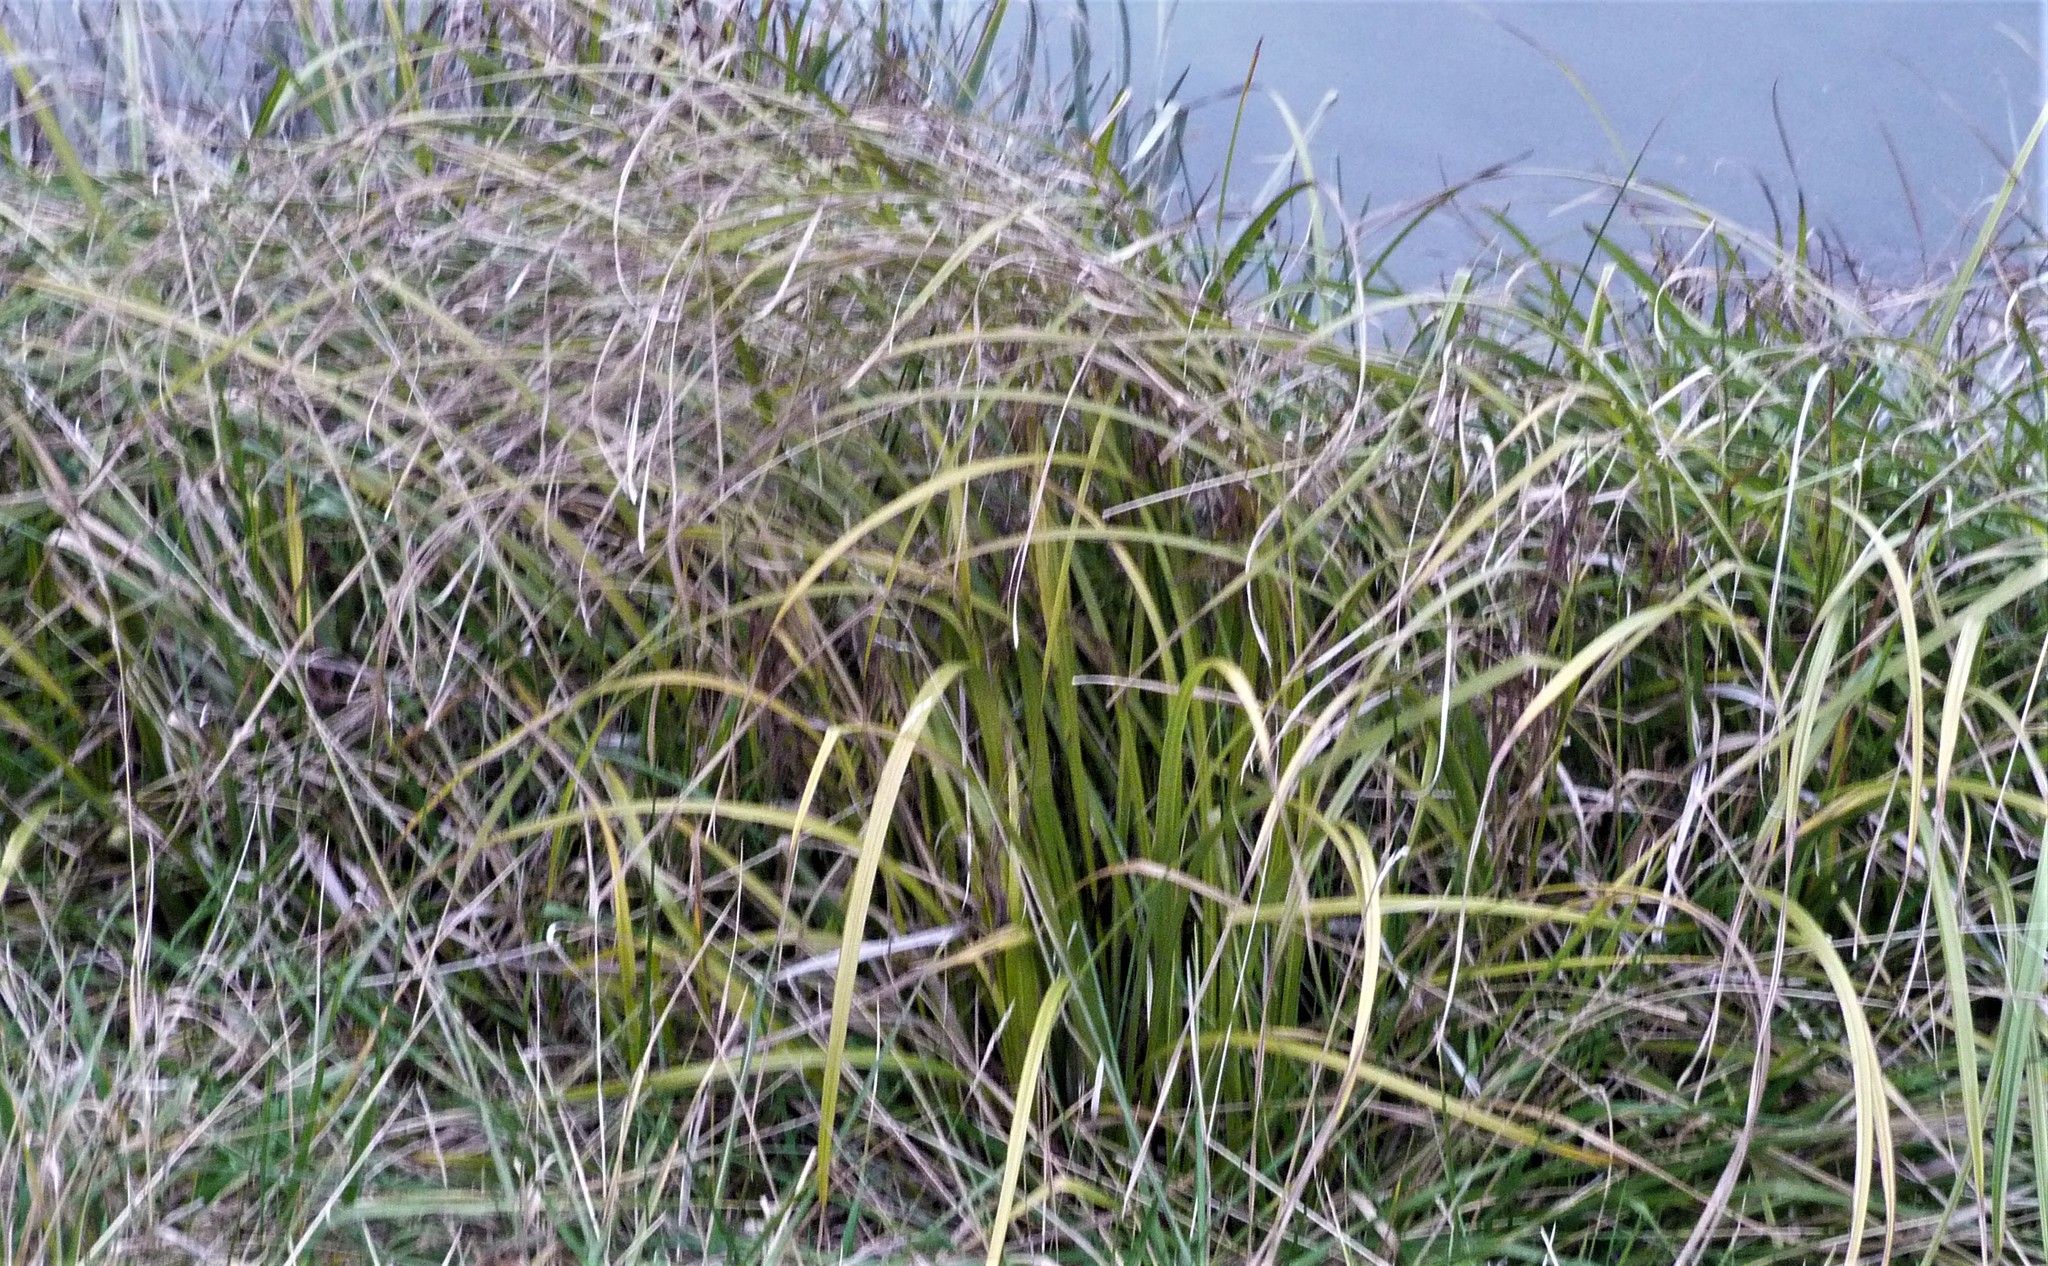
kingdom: Plantae
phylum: Tracheophyta
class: Liliopsida
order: Poales
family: Cyperaceae
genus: Carex
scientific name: Carex geminata
